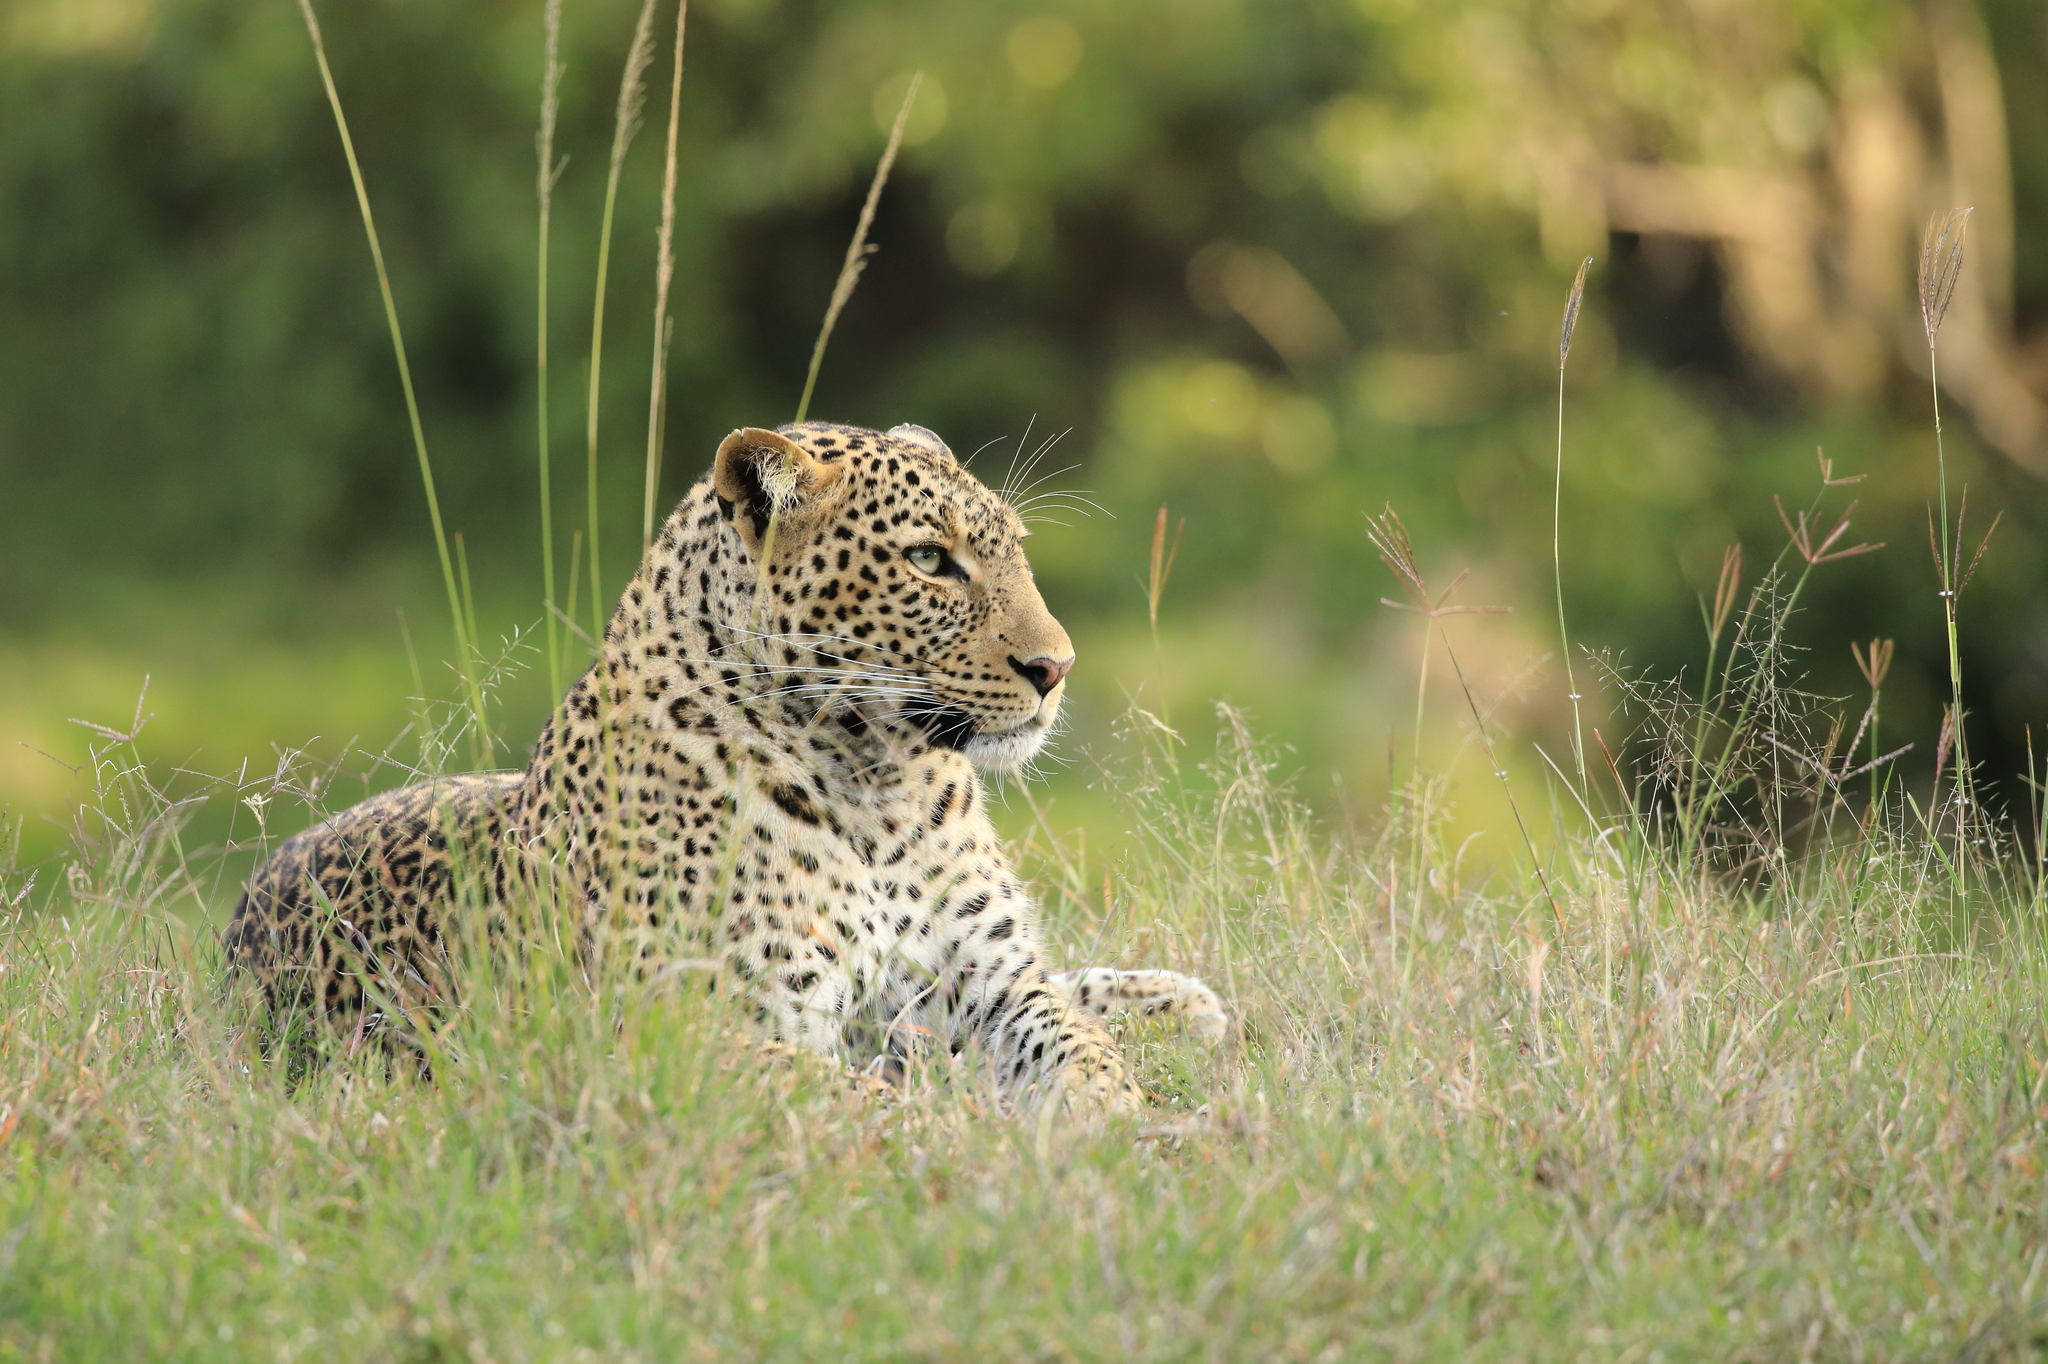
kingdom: Animalia
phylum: Chordata
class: Mammalia
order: Carnivora
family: Felidae
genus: Panthera
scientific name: Panthera pardus
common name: Leopard
